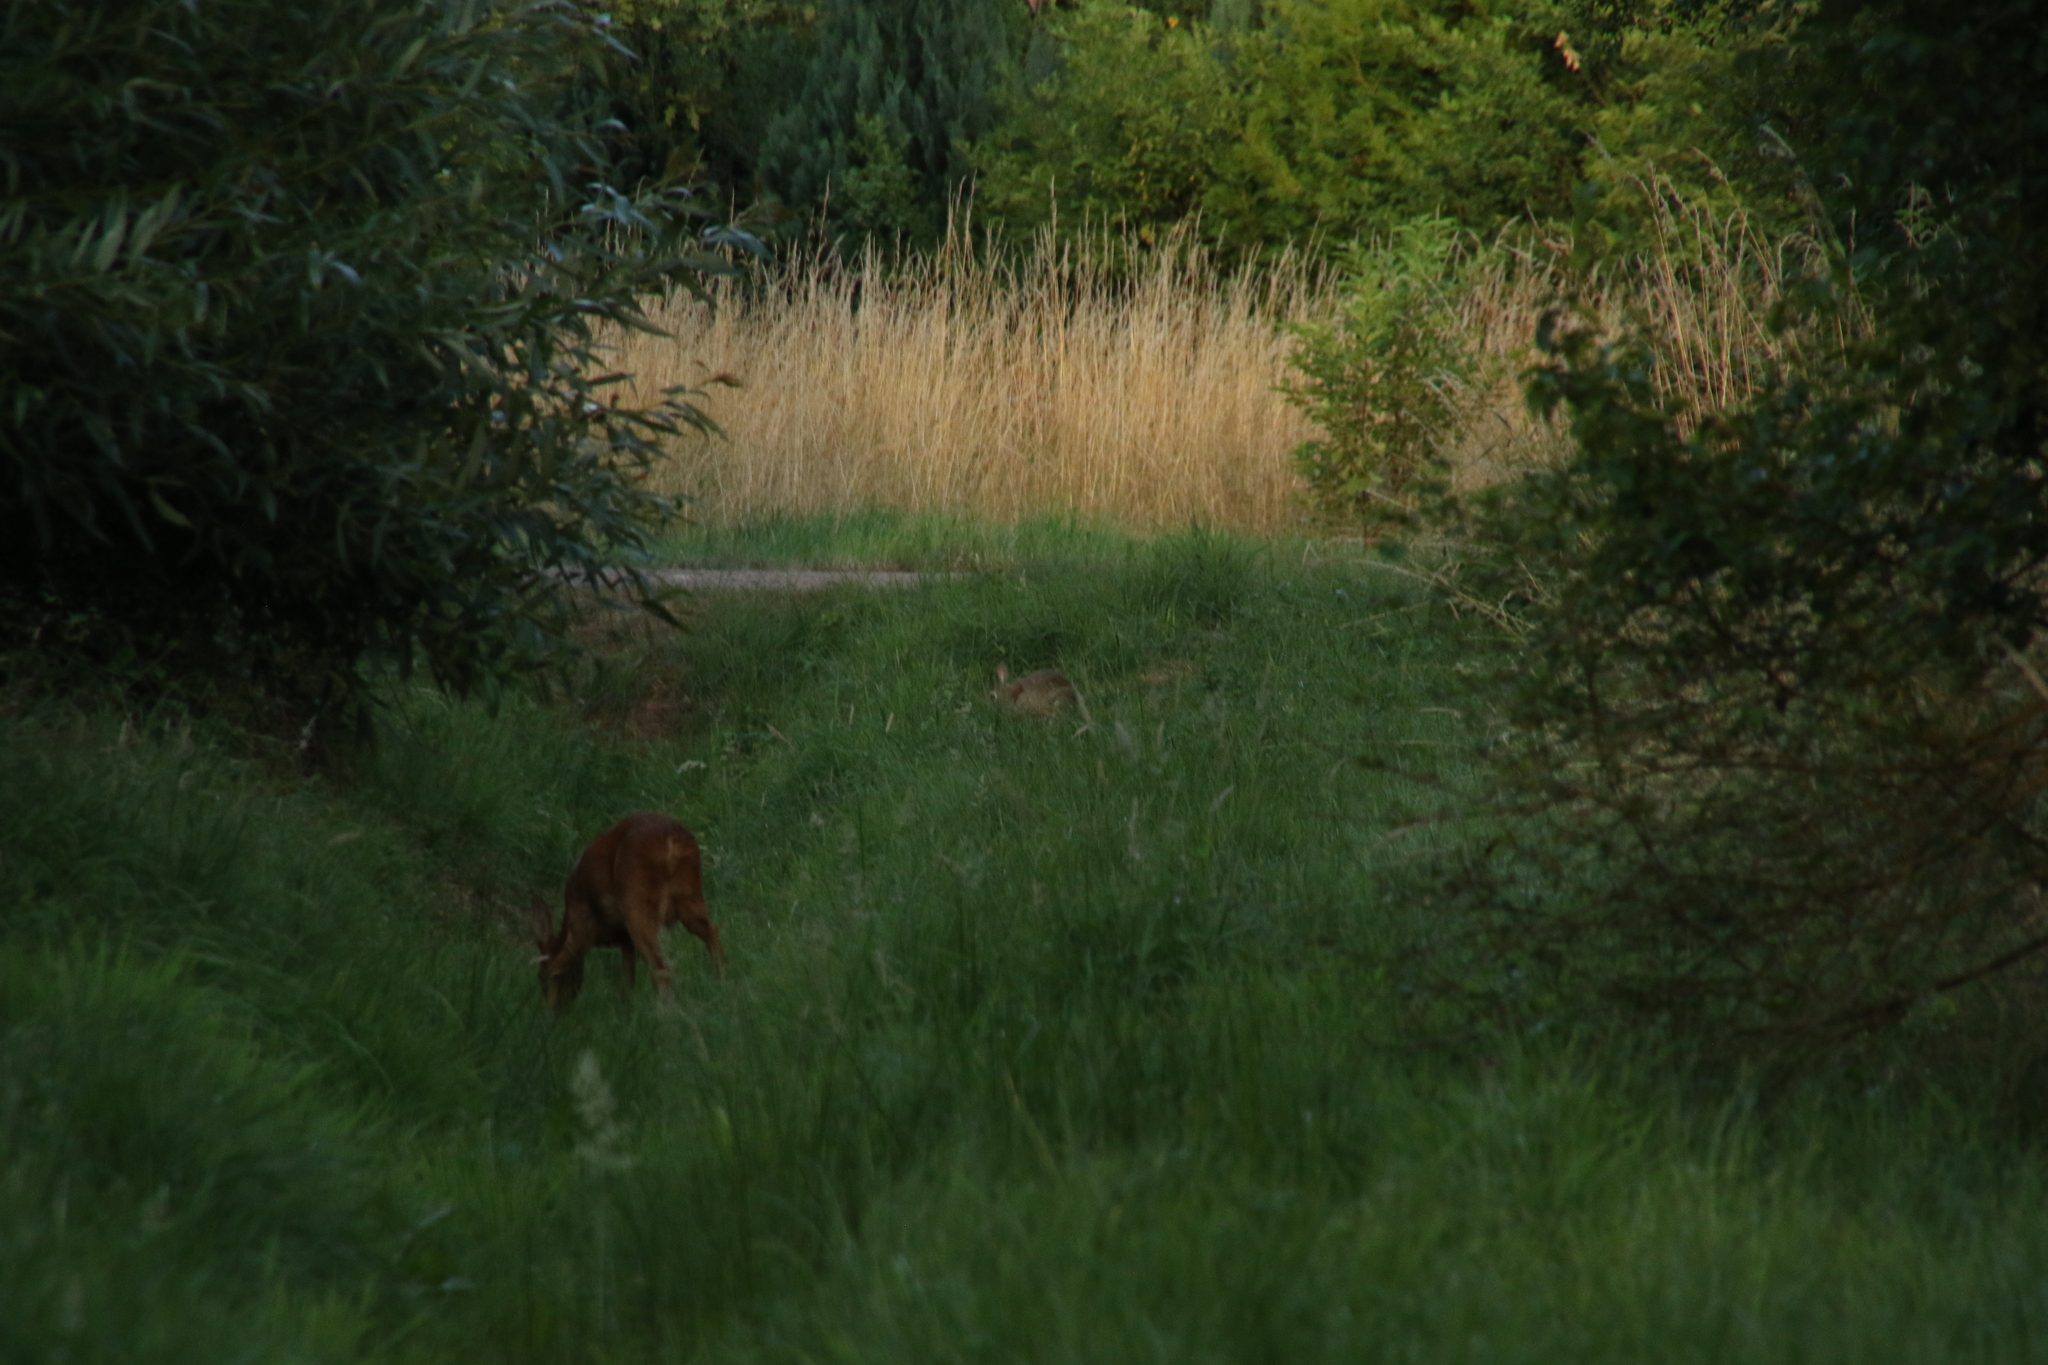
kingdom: Animalia
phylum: Chordata
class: Mammalia
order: Artiodactyla
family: Cervidae
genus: Capreolus
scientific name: Capreolus capreolus
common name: Western roe deer
